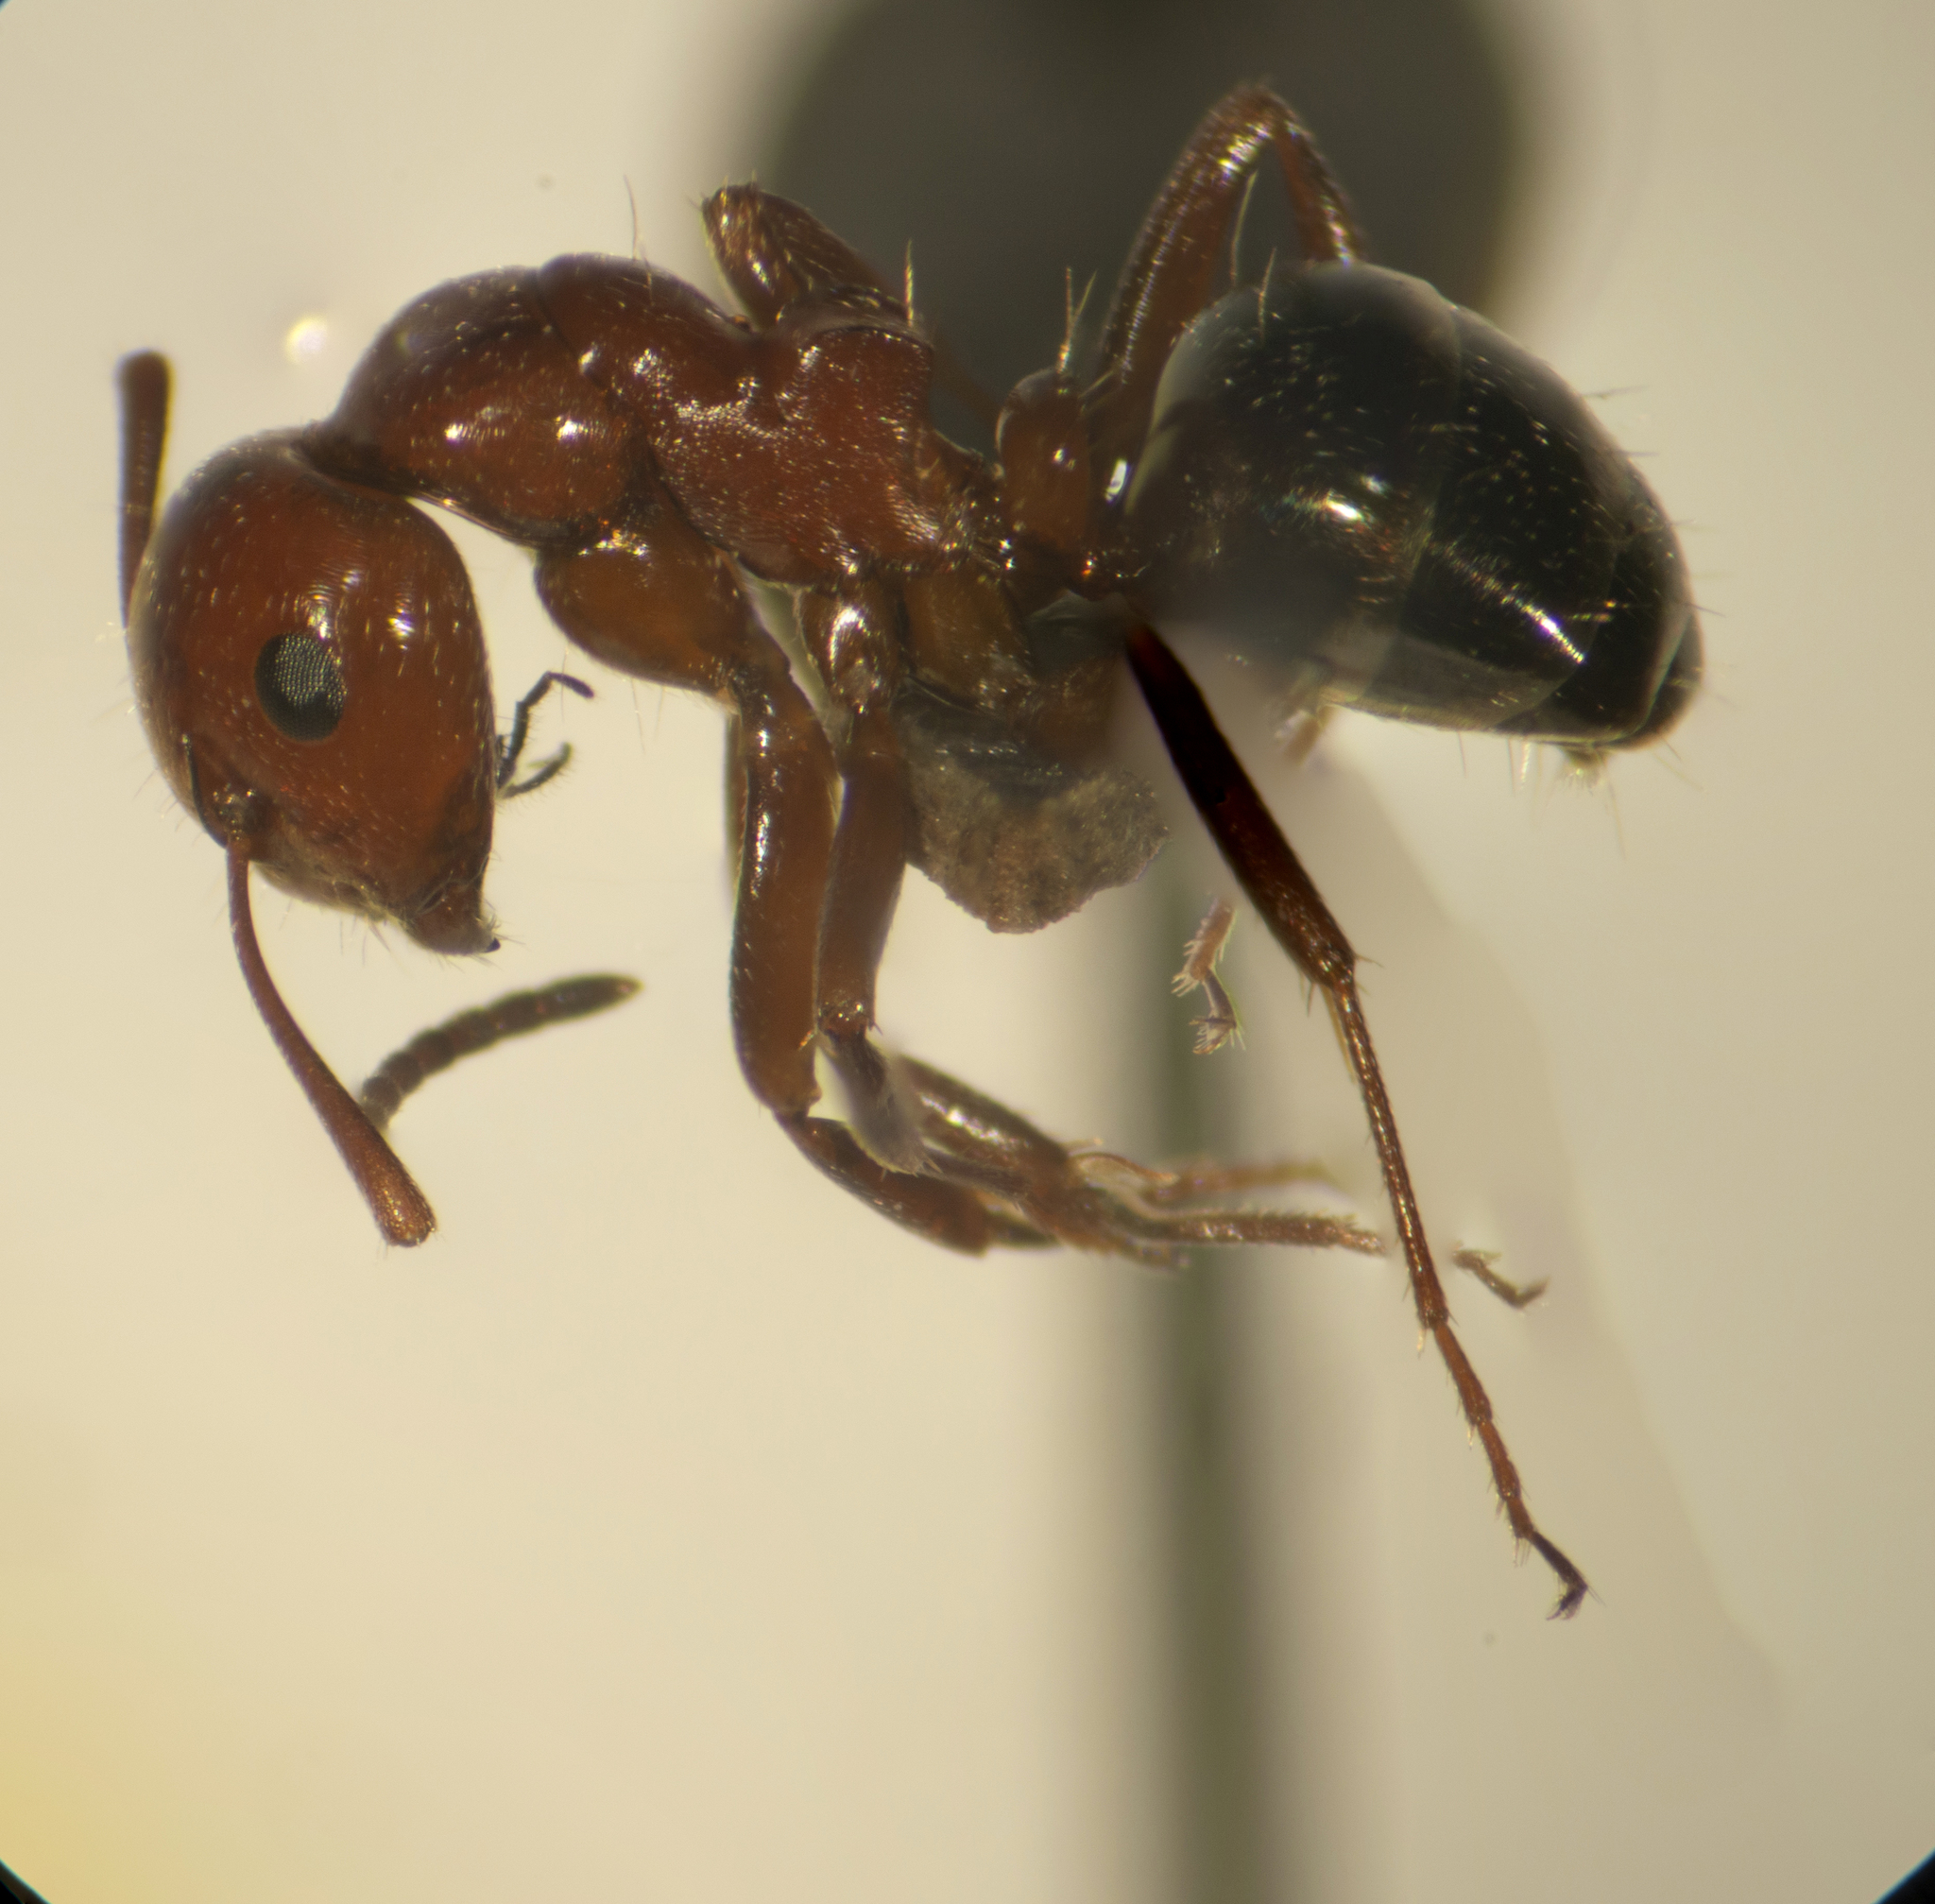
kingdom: Animalia
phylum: Arthropoda
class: Insecta
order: Hymenoptera
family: Formicidae
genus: Camponotus
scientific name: Camponotus lateralis
